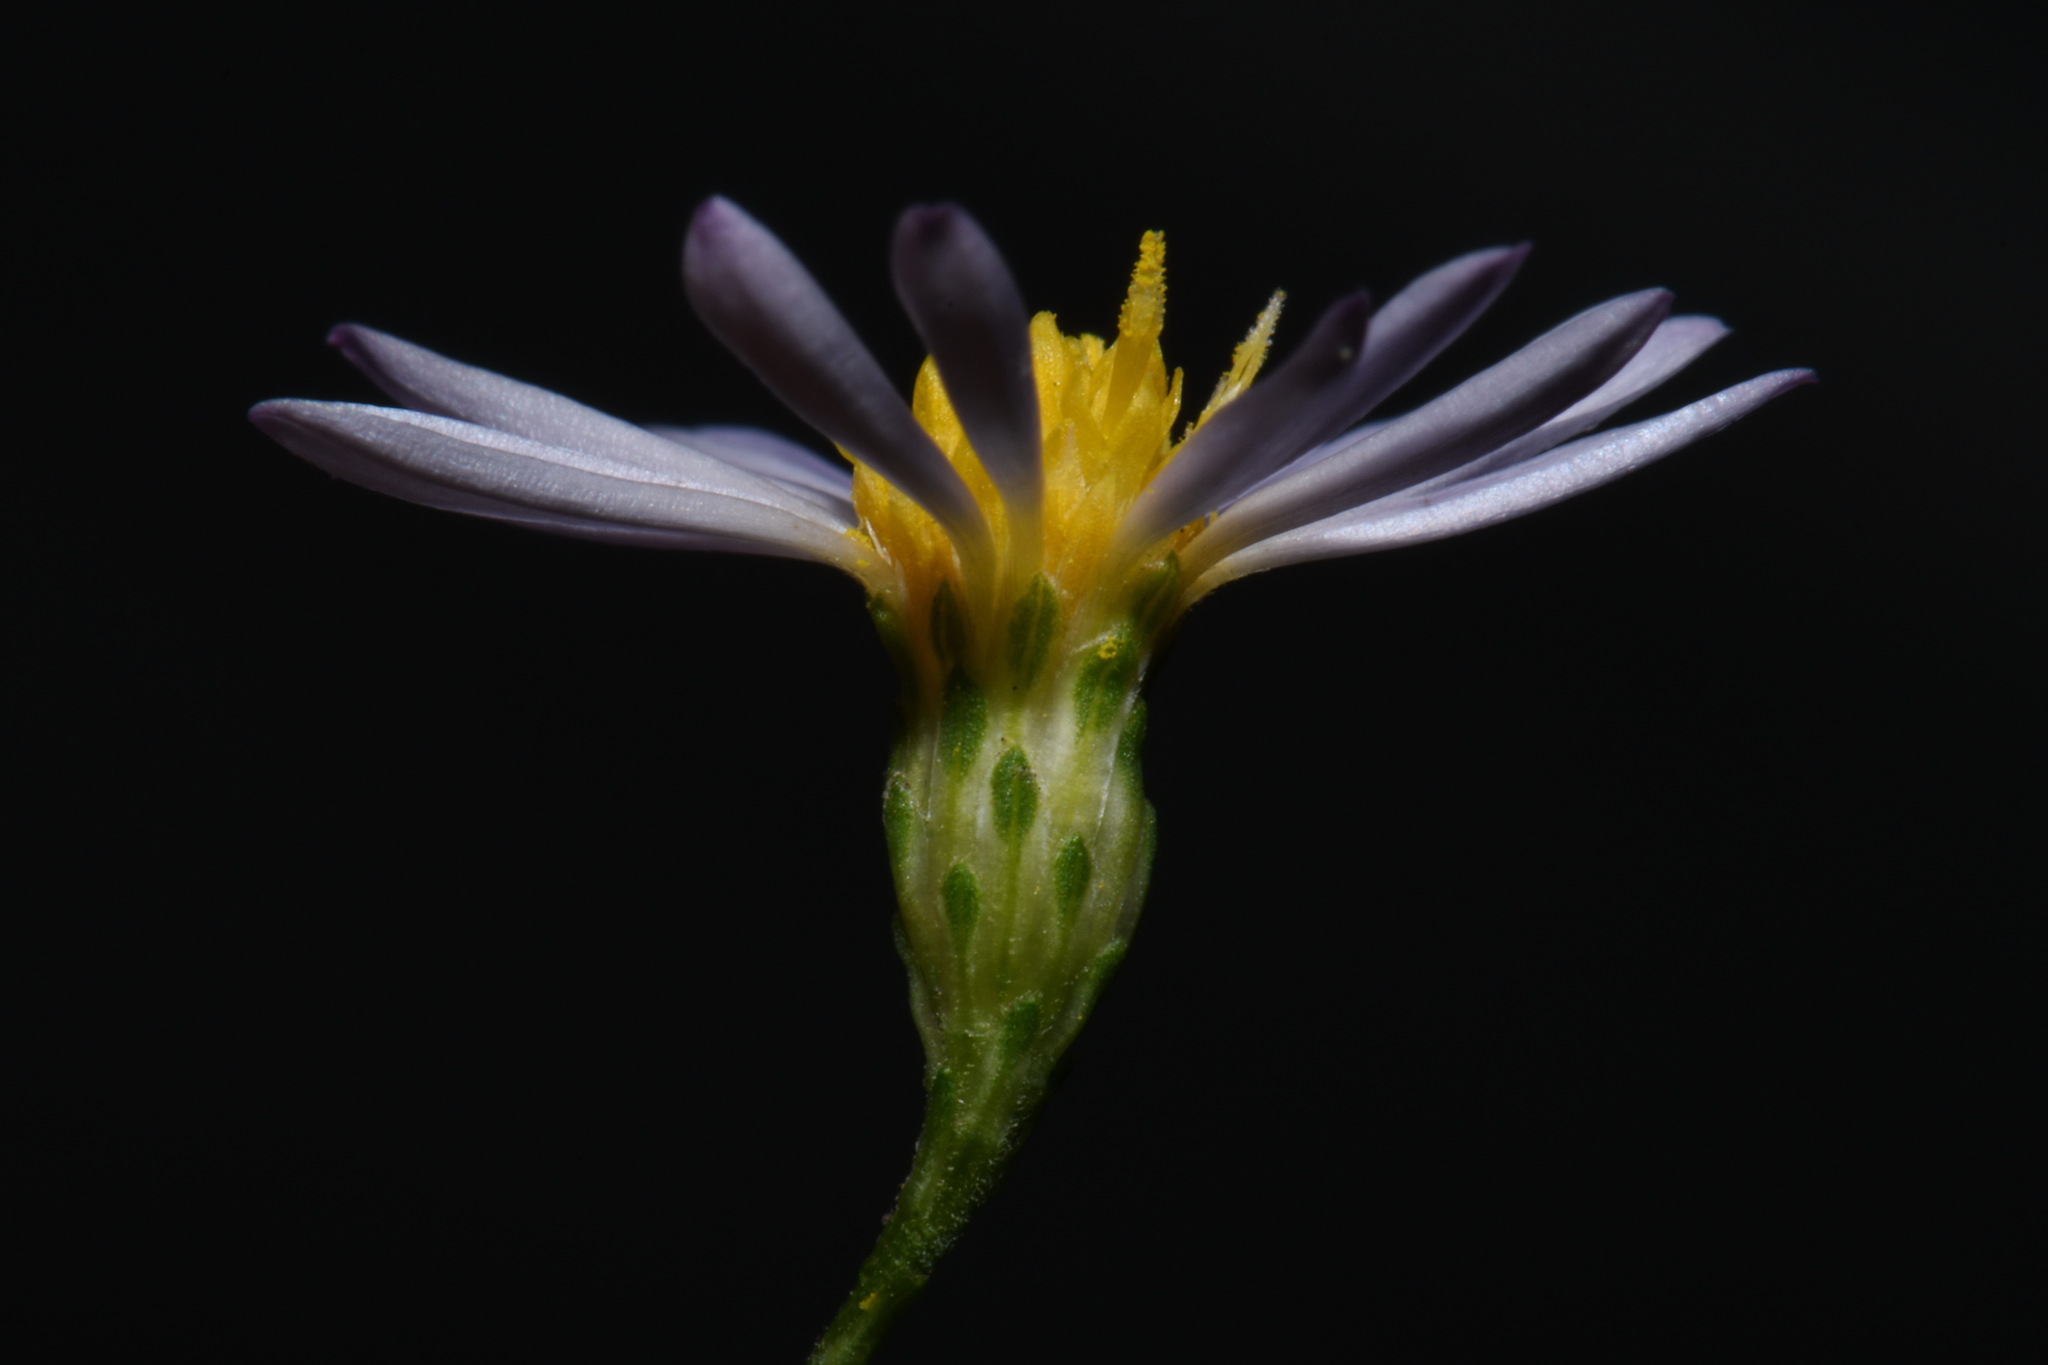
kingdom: Plantae
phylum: Tracheophyta
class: Magnoliopsida
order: Asterales
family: Asteraceae
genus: Symphyotrichum
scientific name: Symphyotrichum laeve
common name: Glaucous aster
